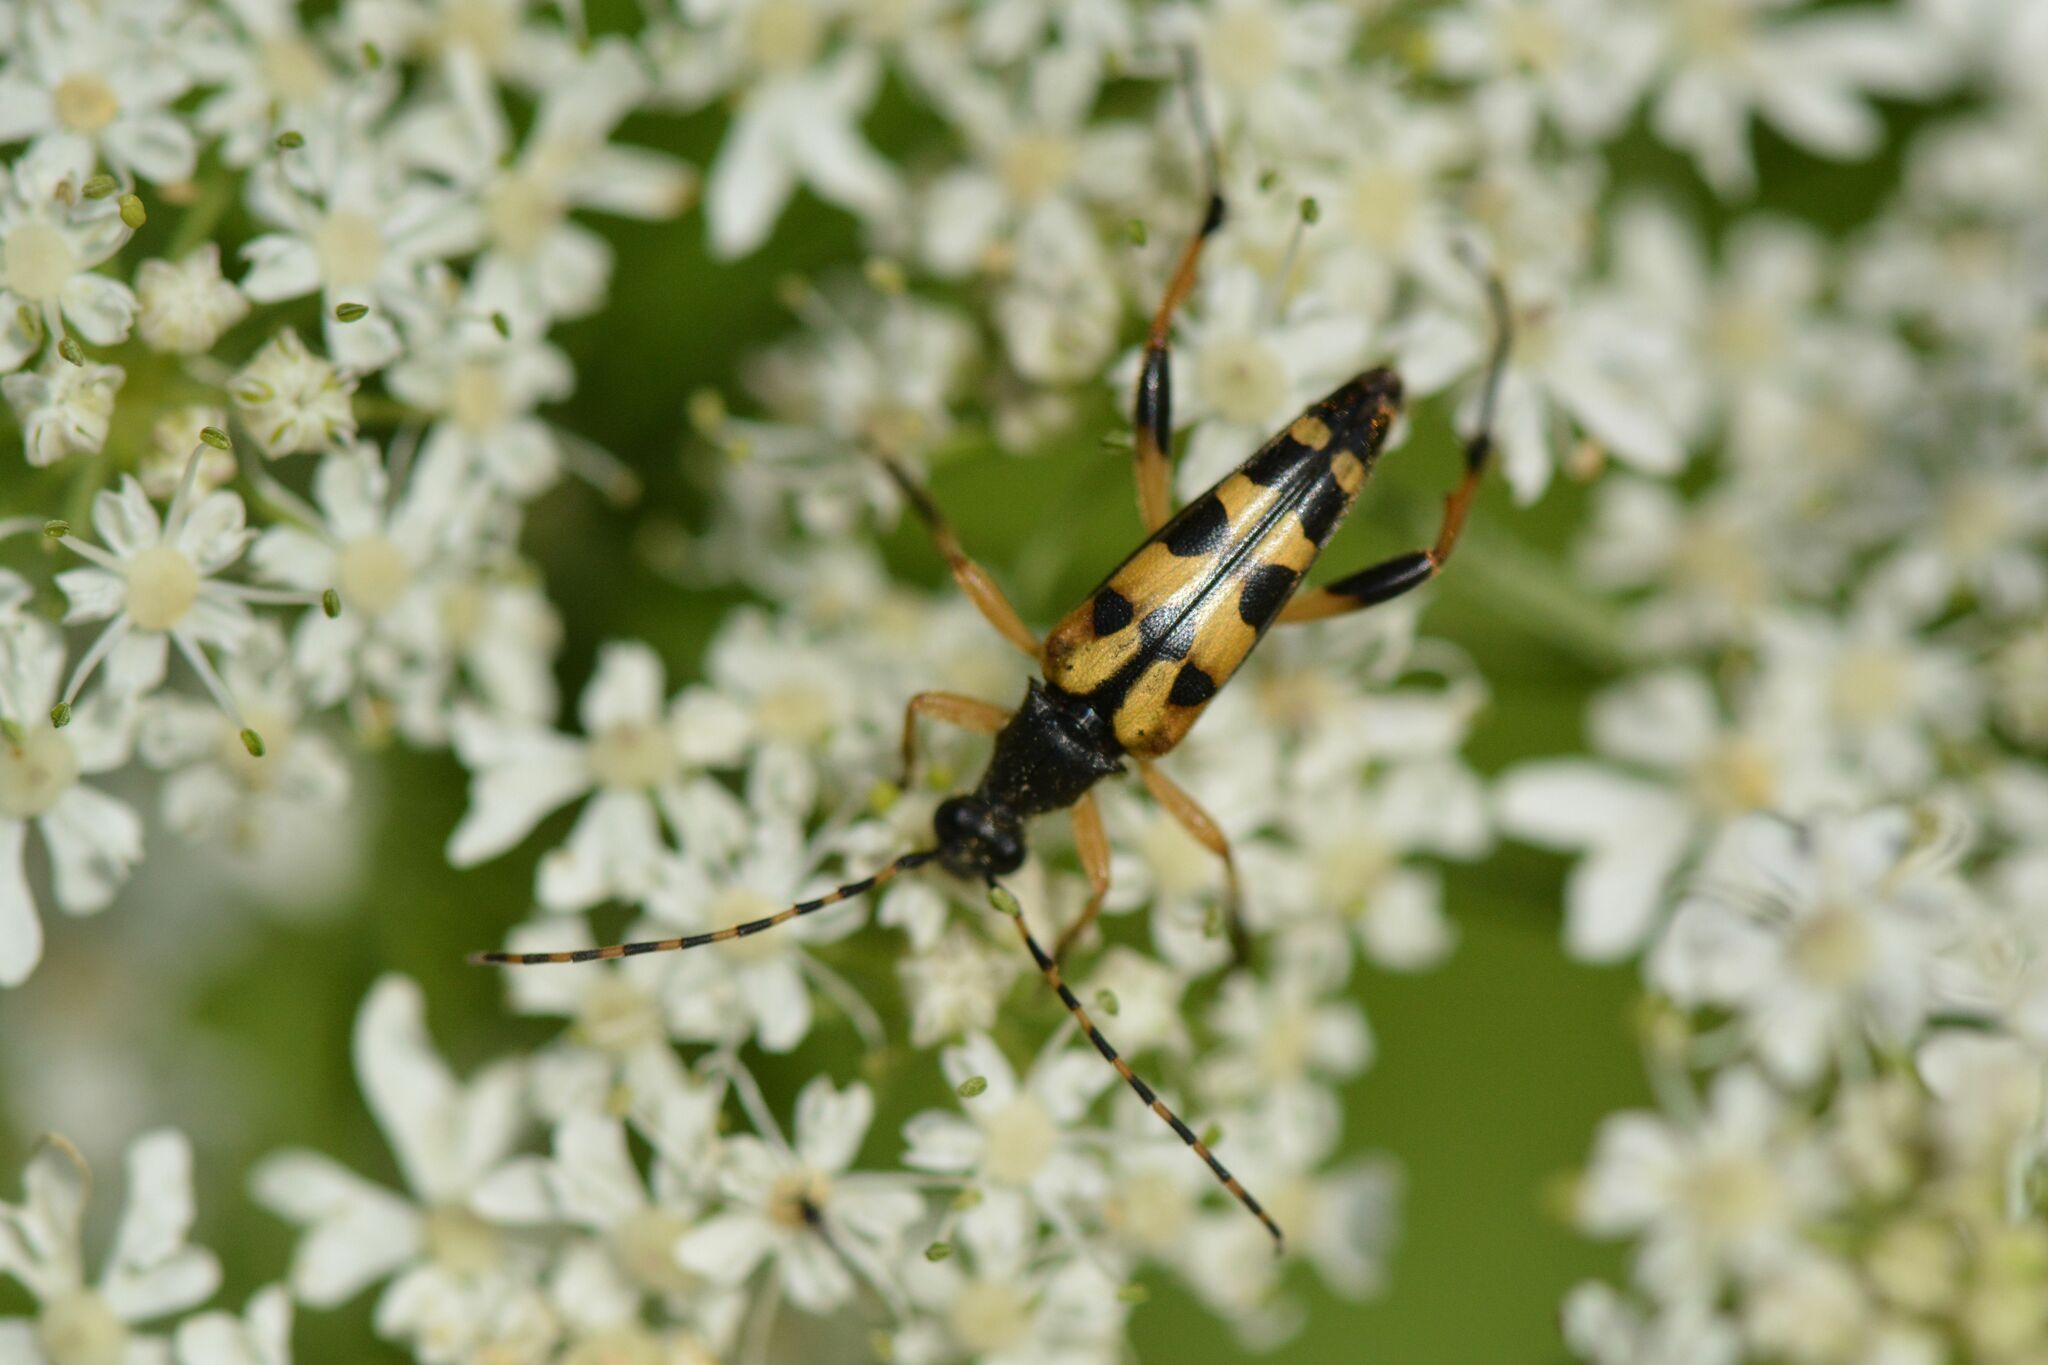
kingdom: Animalia
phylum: Arthropoda
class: Insecta
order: Coleoptera
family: Cerambycidae
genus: Rutpela
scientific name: Rutpela maculata
